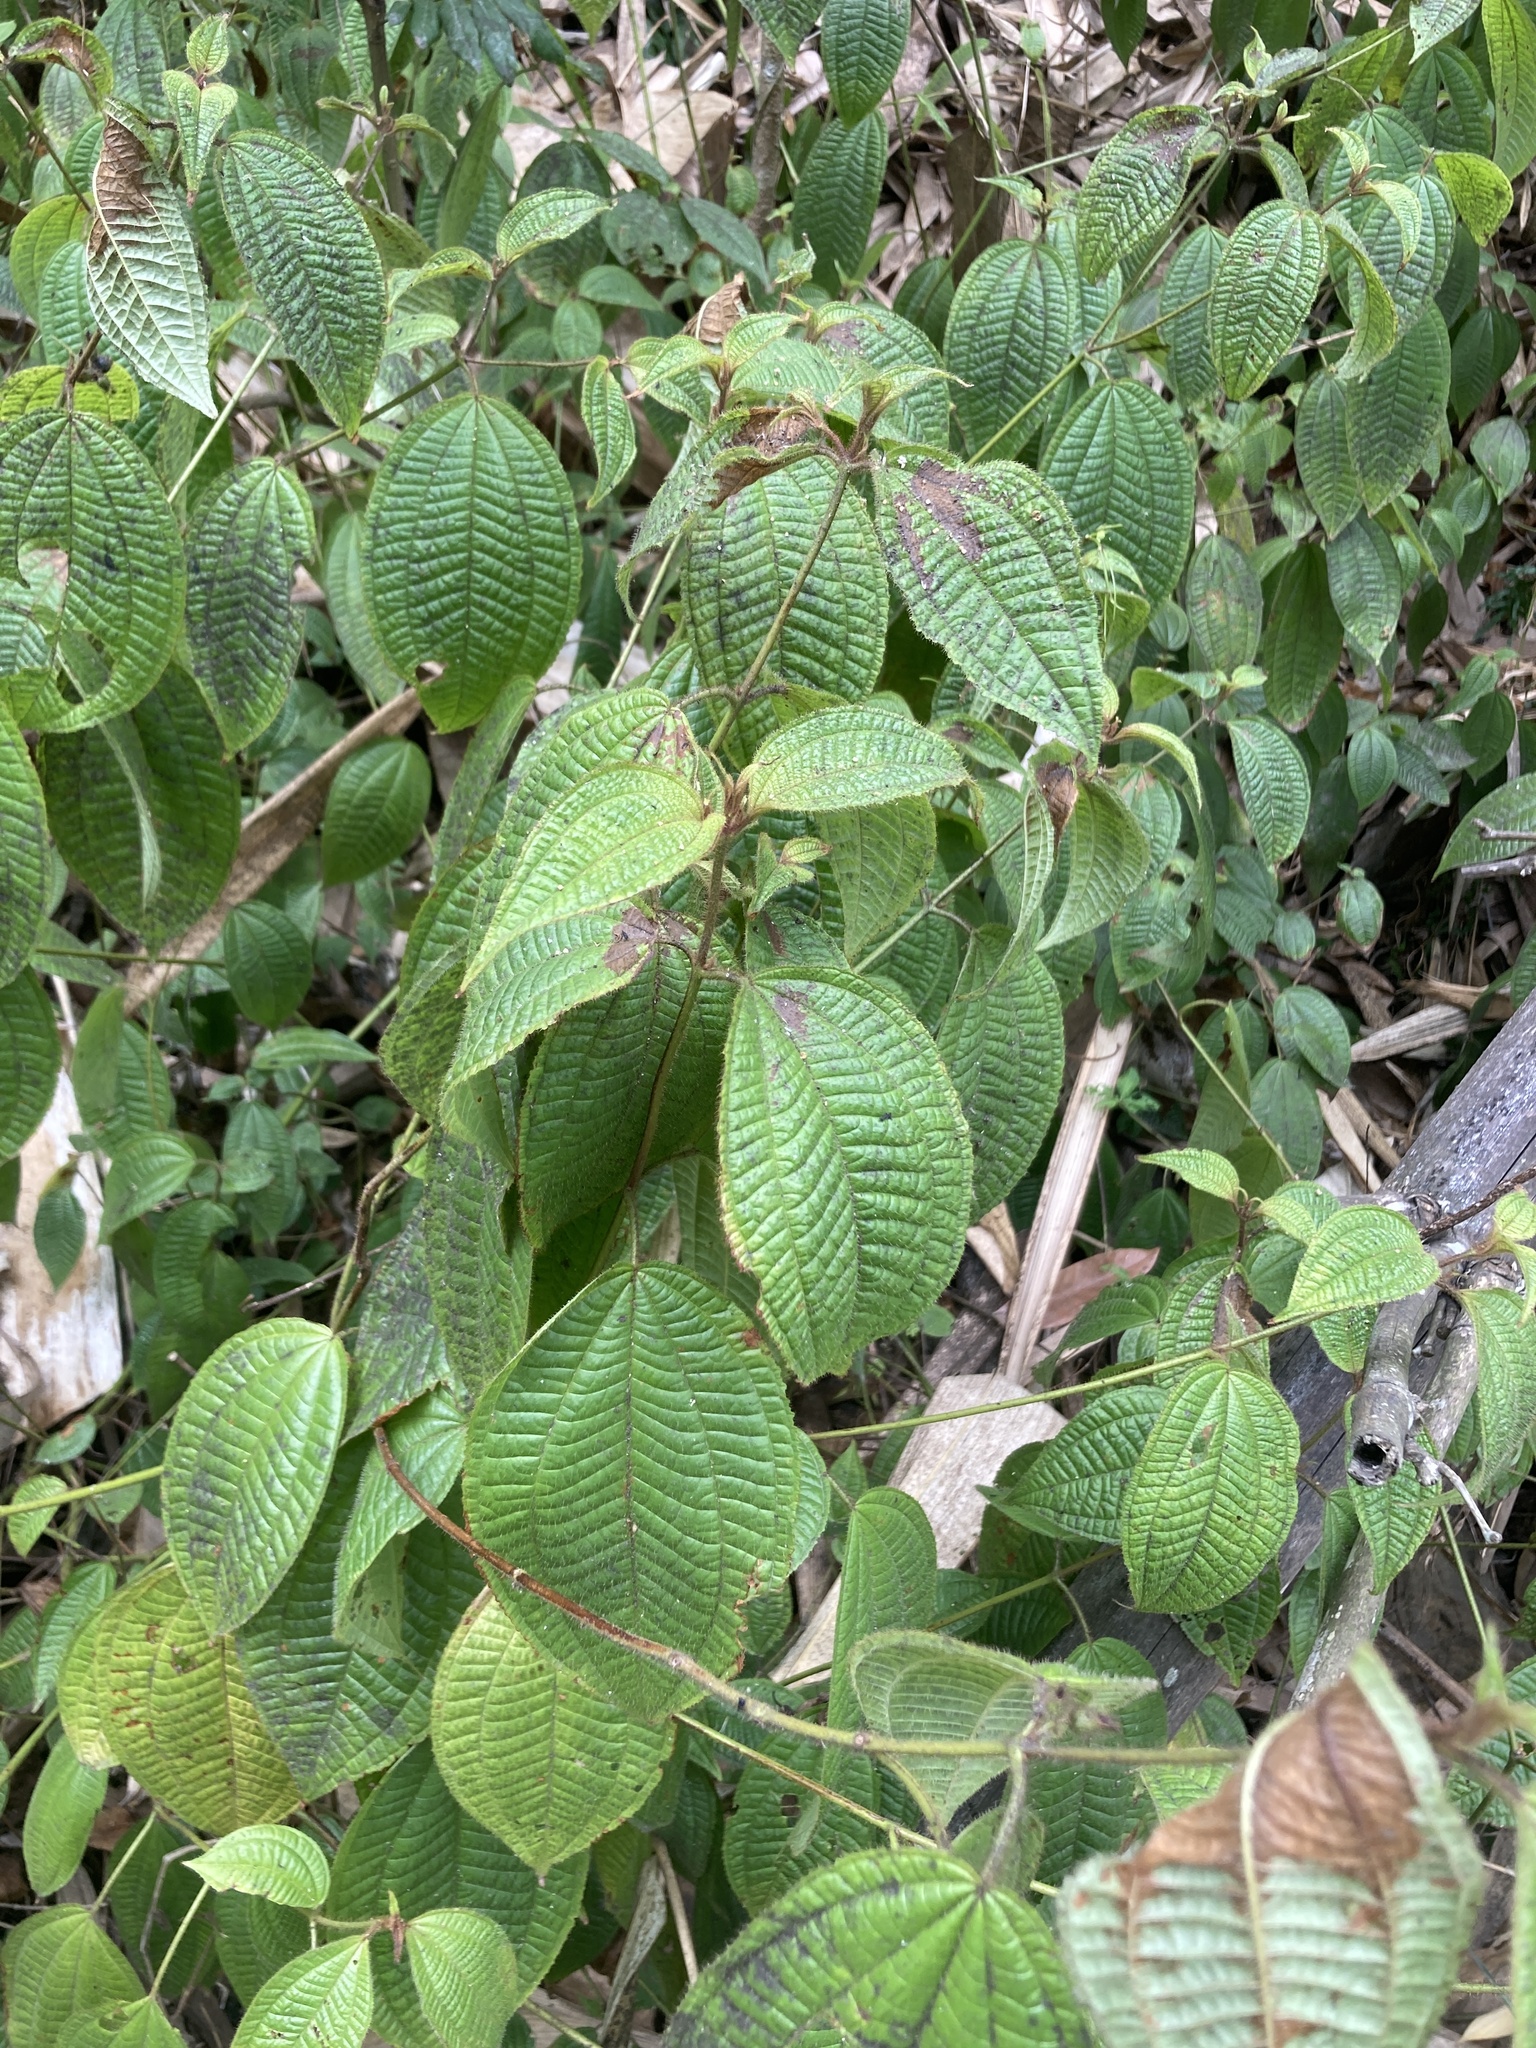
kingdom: Plantae
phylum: Tracheophyta
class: Magnoliopsida
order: Myrtales
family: Melastomataceae
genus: Miconia
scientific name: Miconia crenata
